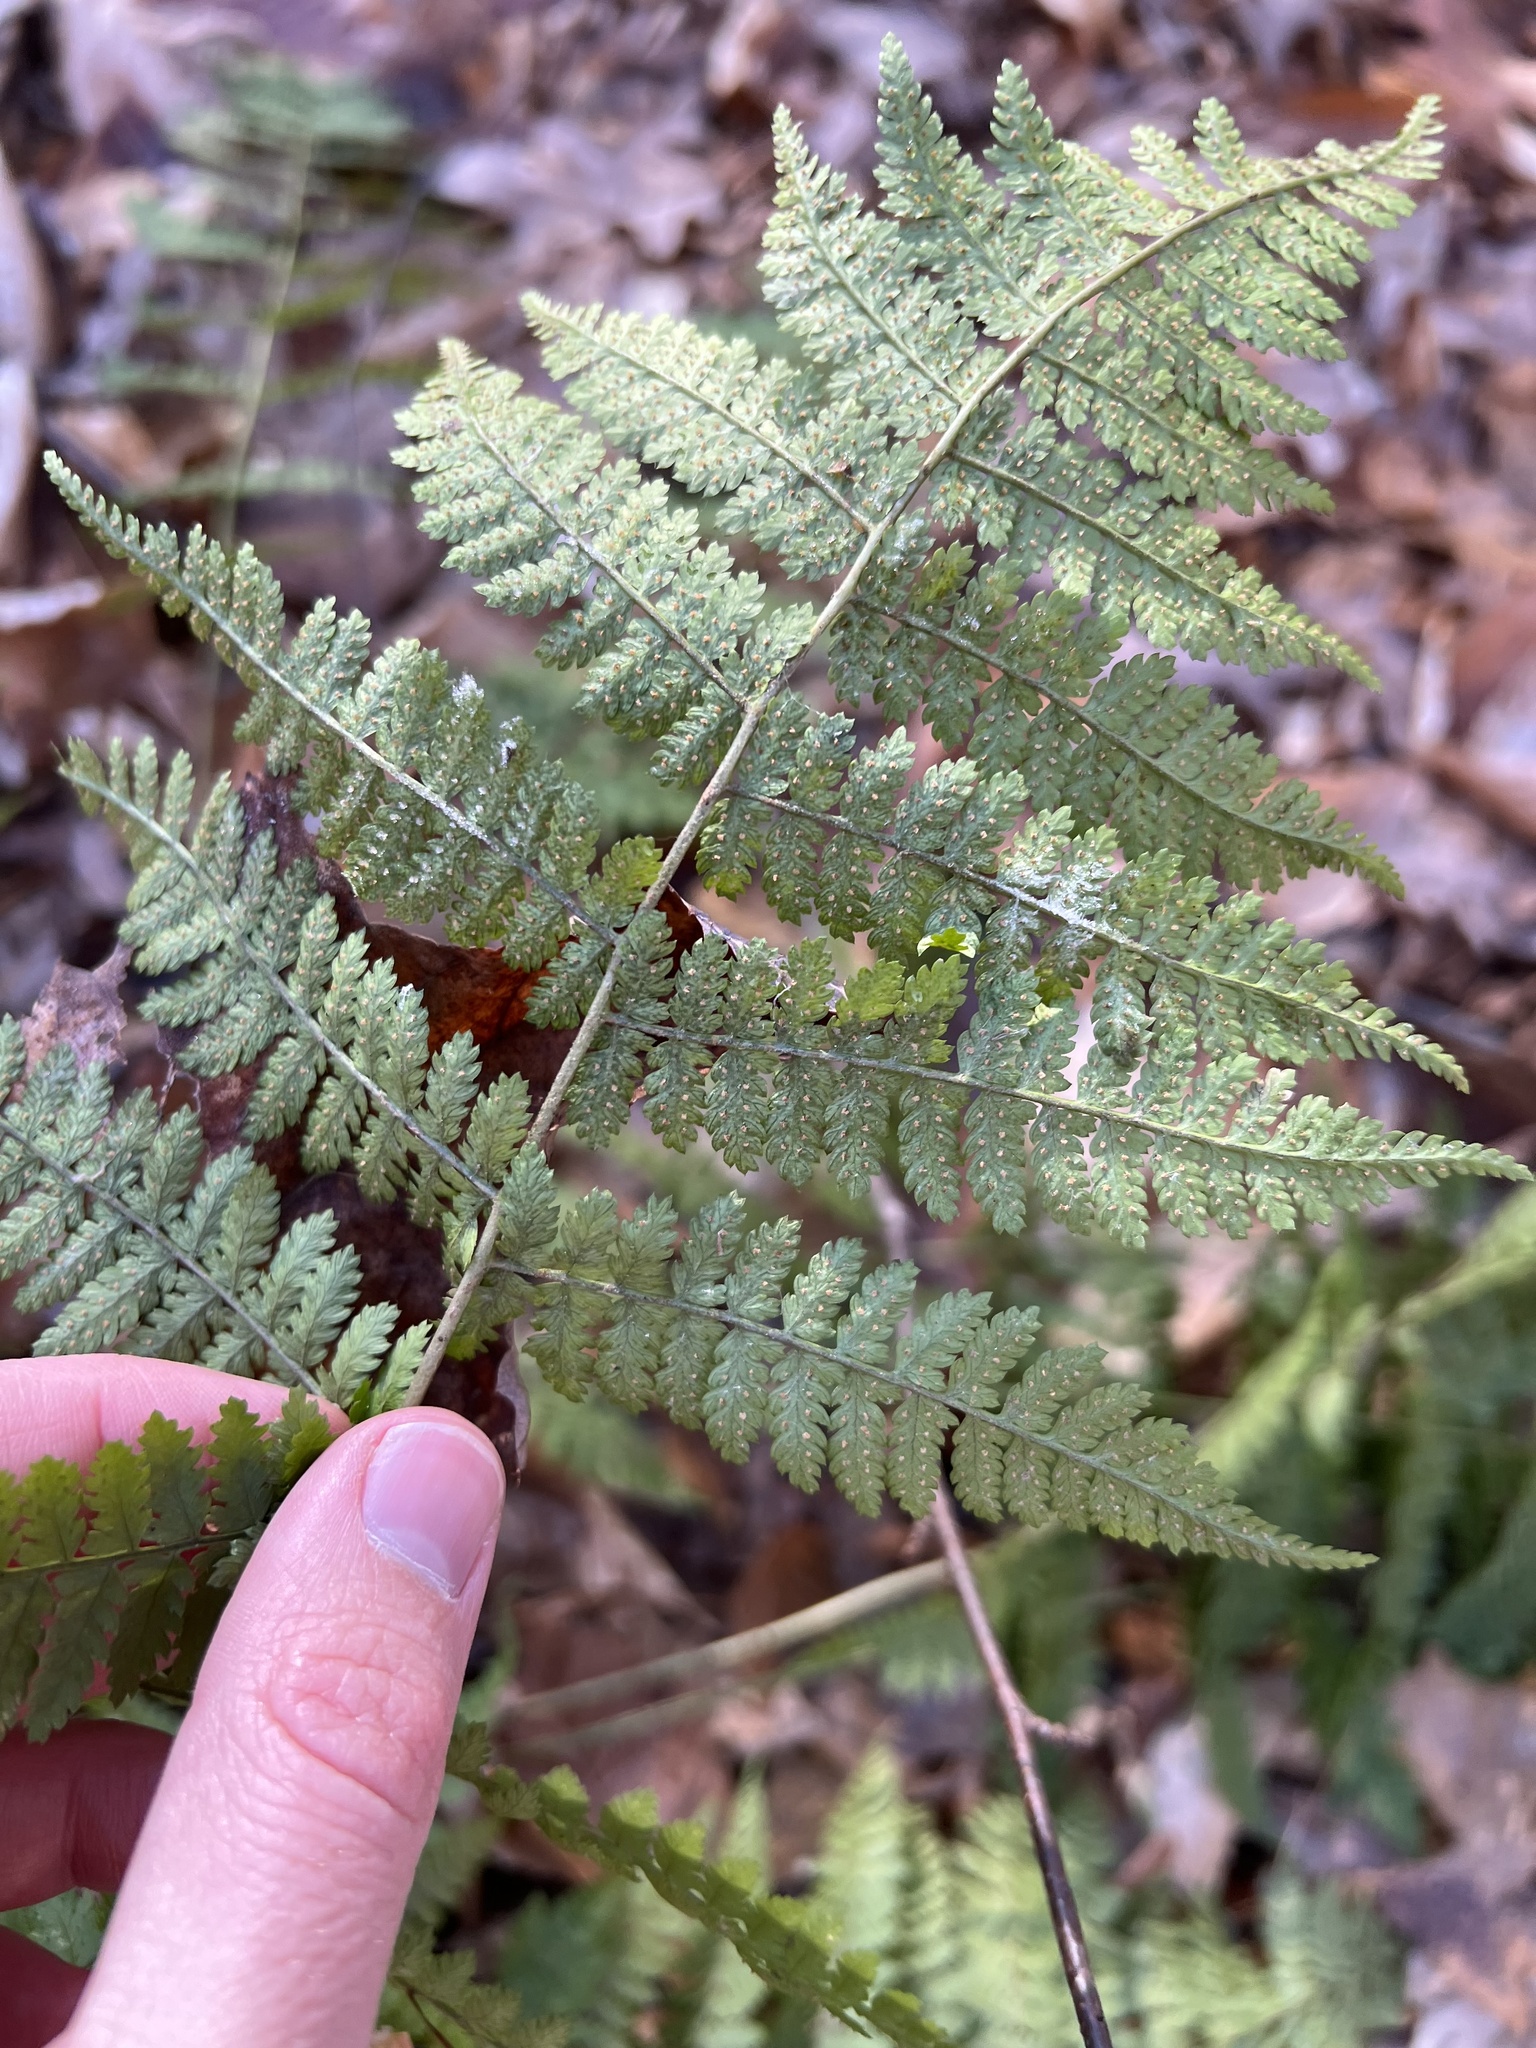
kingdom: Plantae
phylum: Tracheophyta
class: Polypodiopsida
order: Polypodiales
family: Dryopteridaceae
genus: Dryopteris
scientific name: Dryopteris intermedia
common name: Evergreen wood fern
